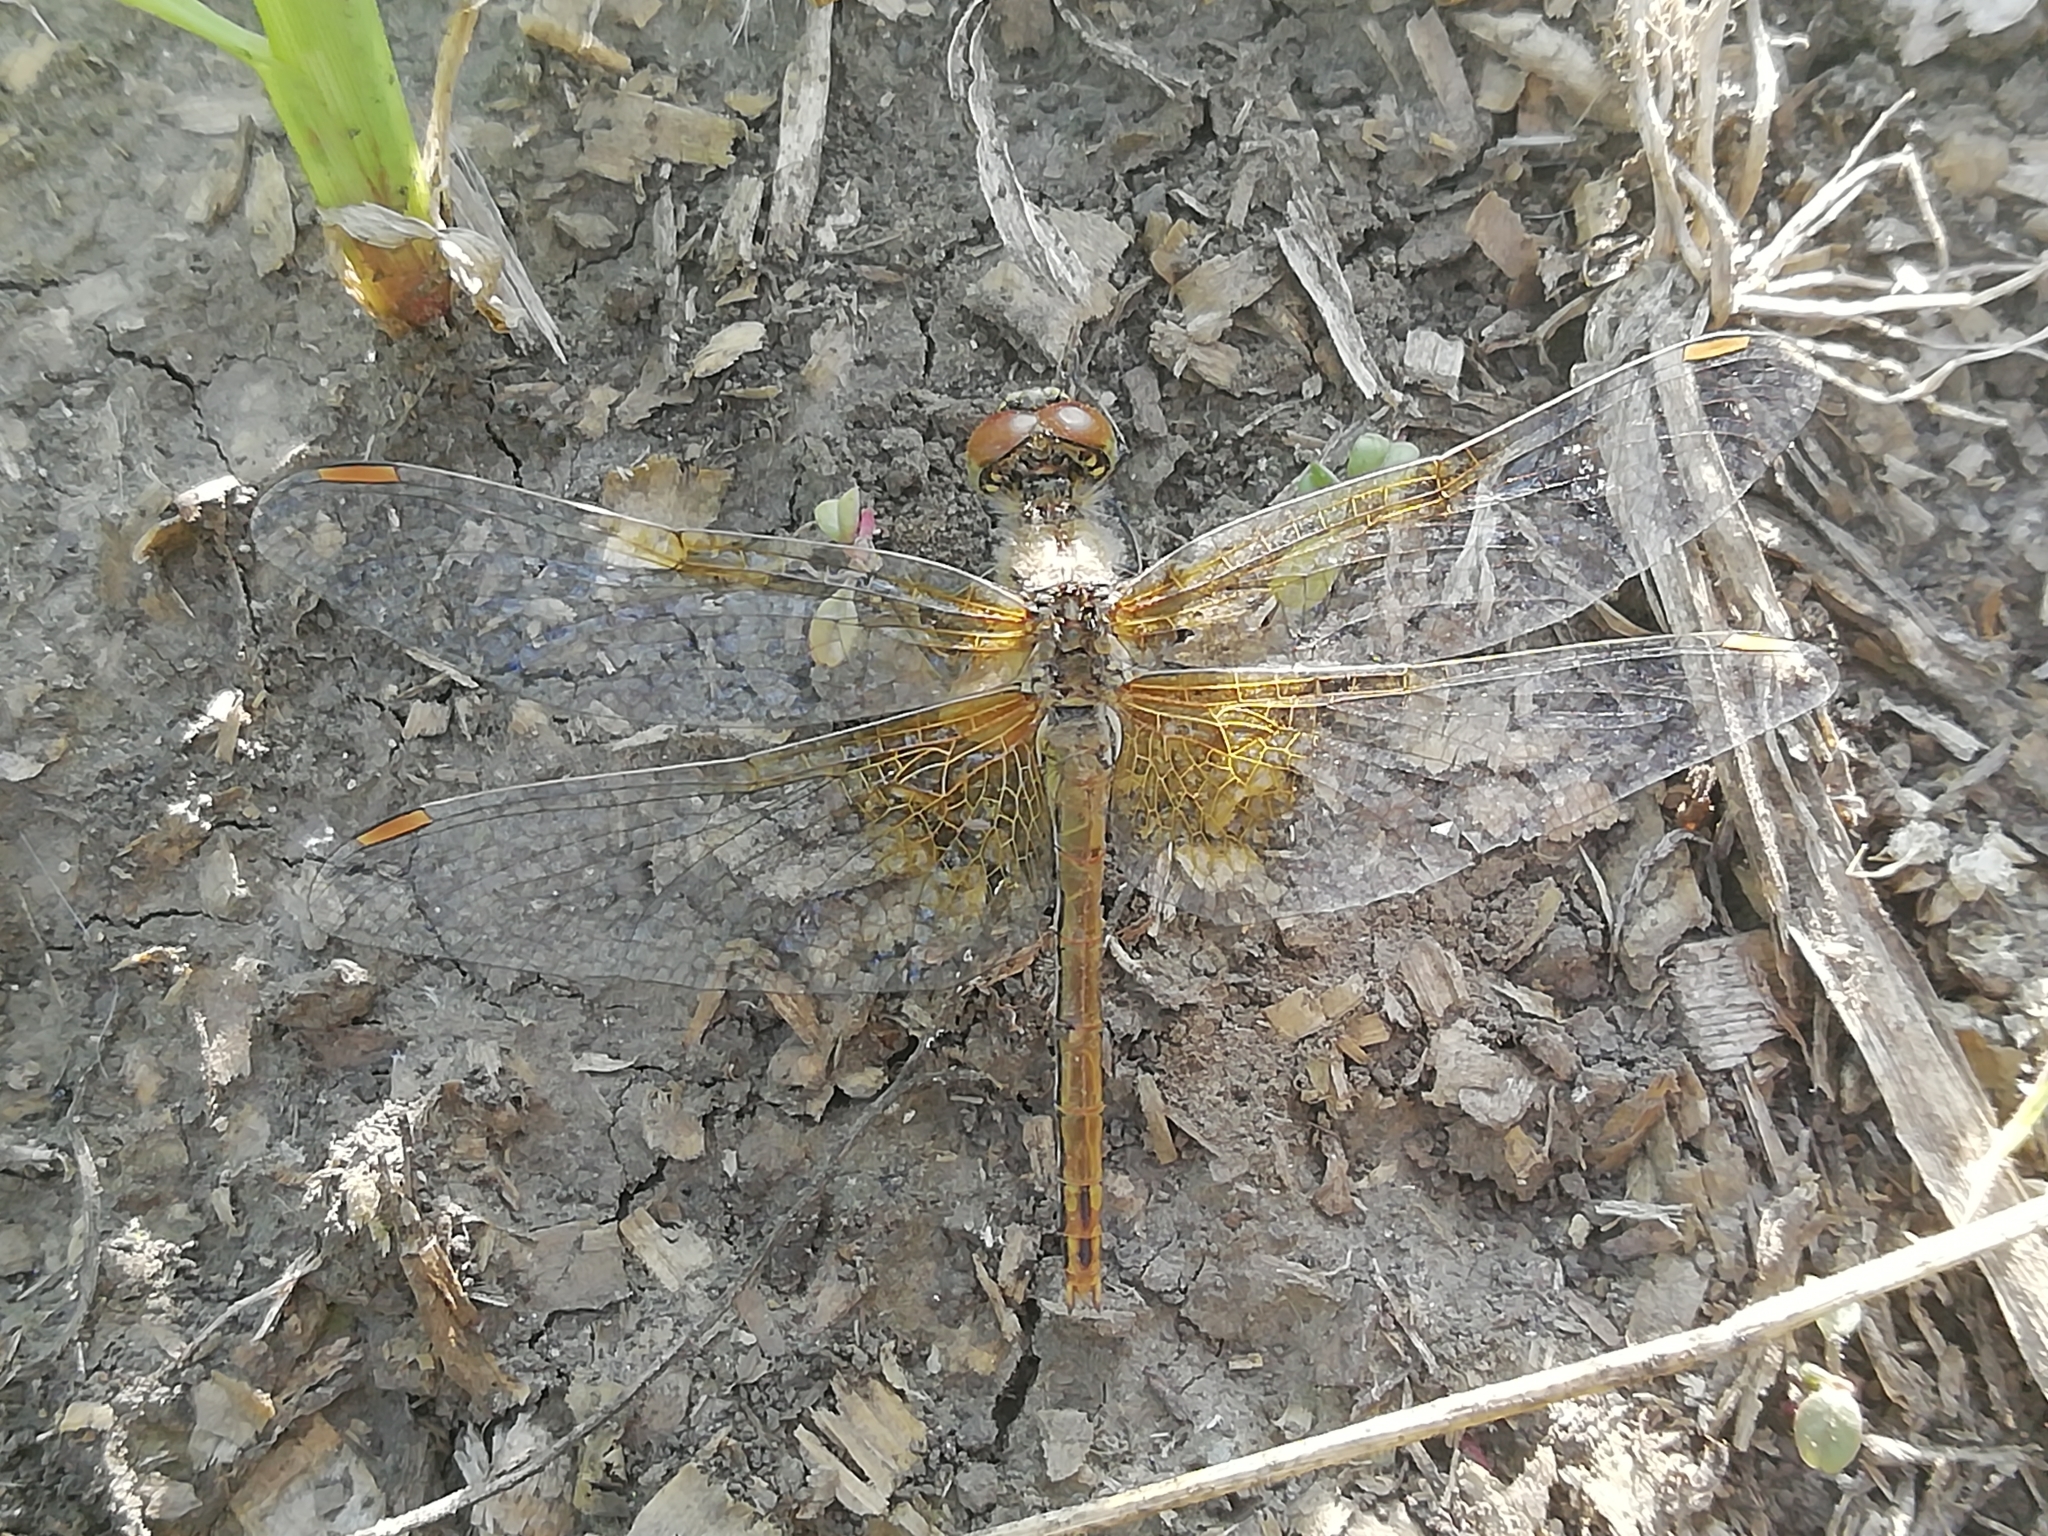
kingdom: Animalia
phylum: Arthropoda
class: Insecta
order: Odonata
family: Libellulidae
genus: Sympetrum
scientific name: Sympetrum flaveolum
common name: Yellow-winged darter
